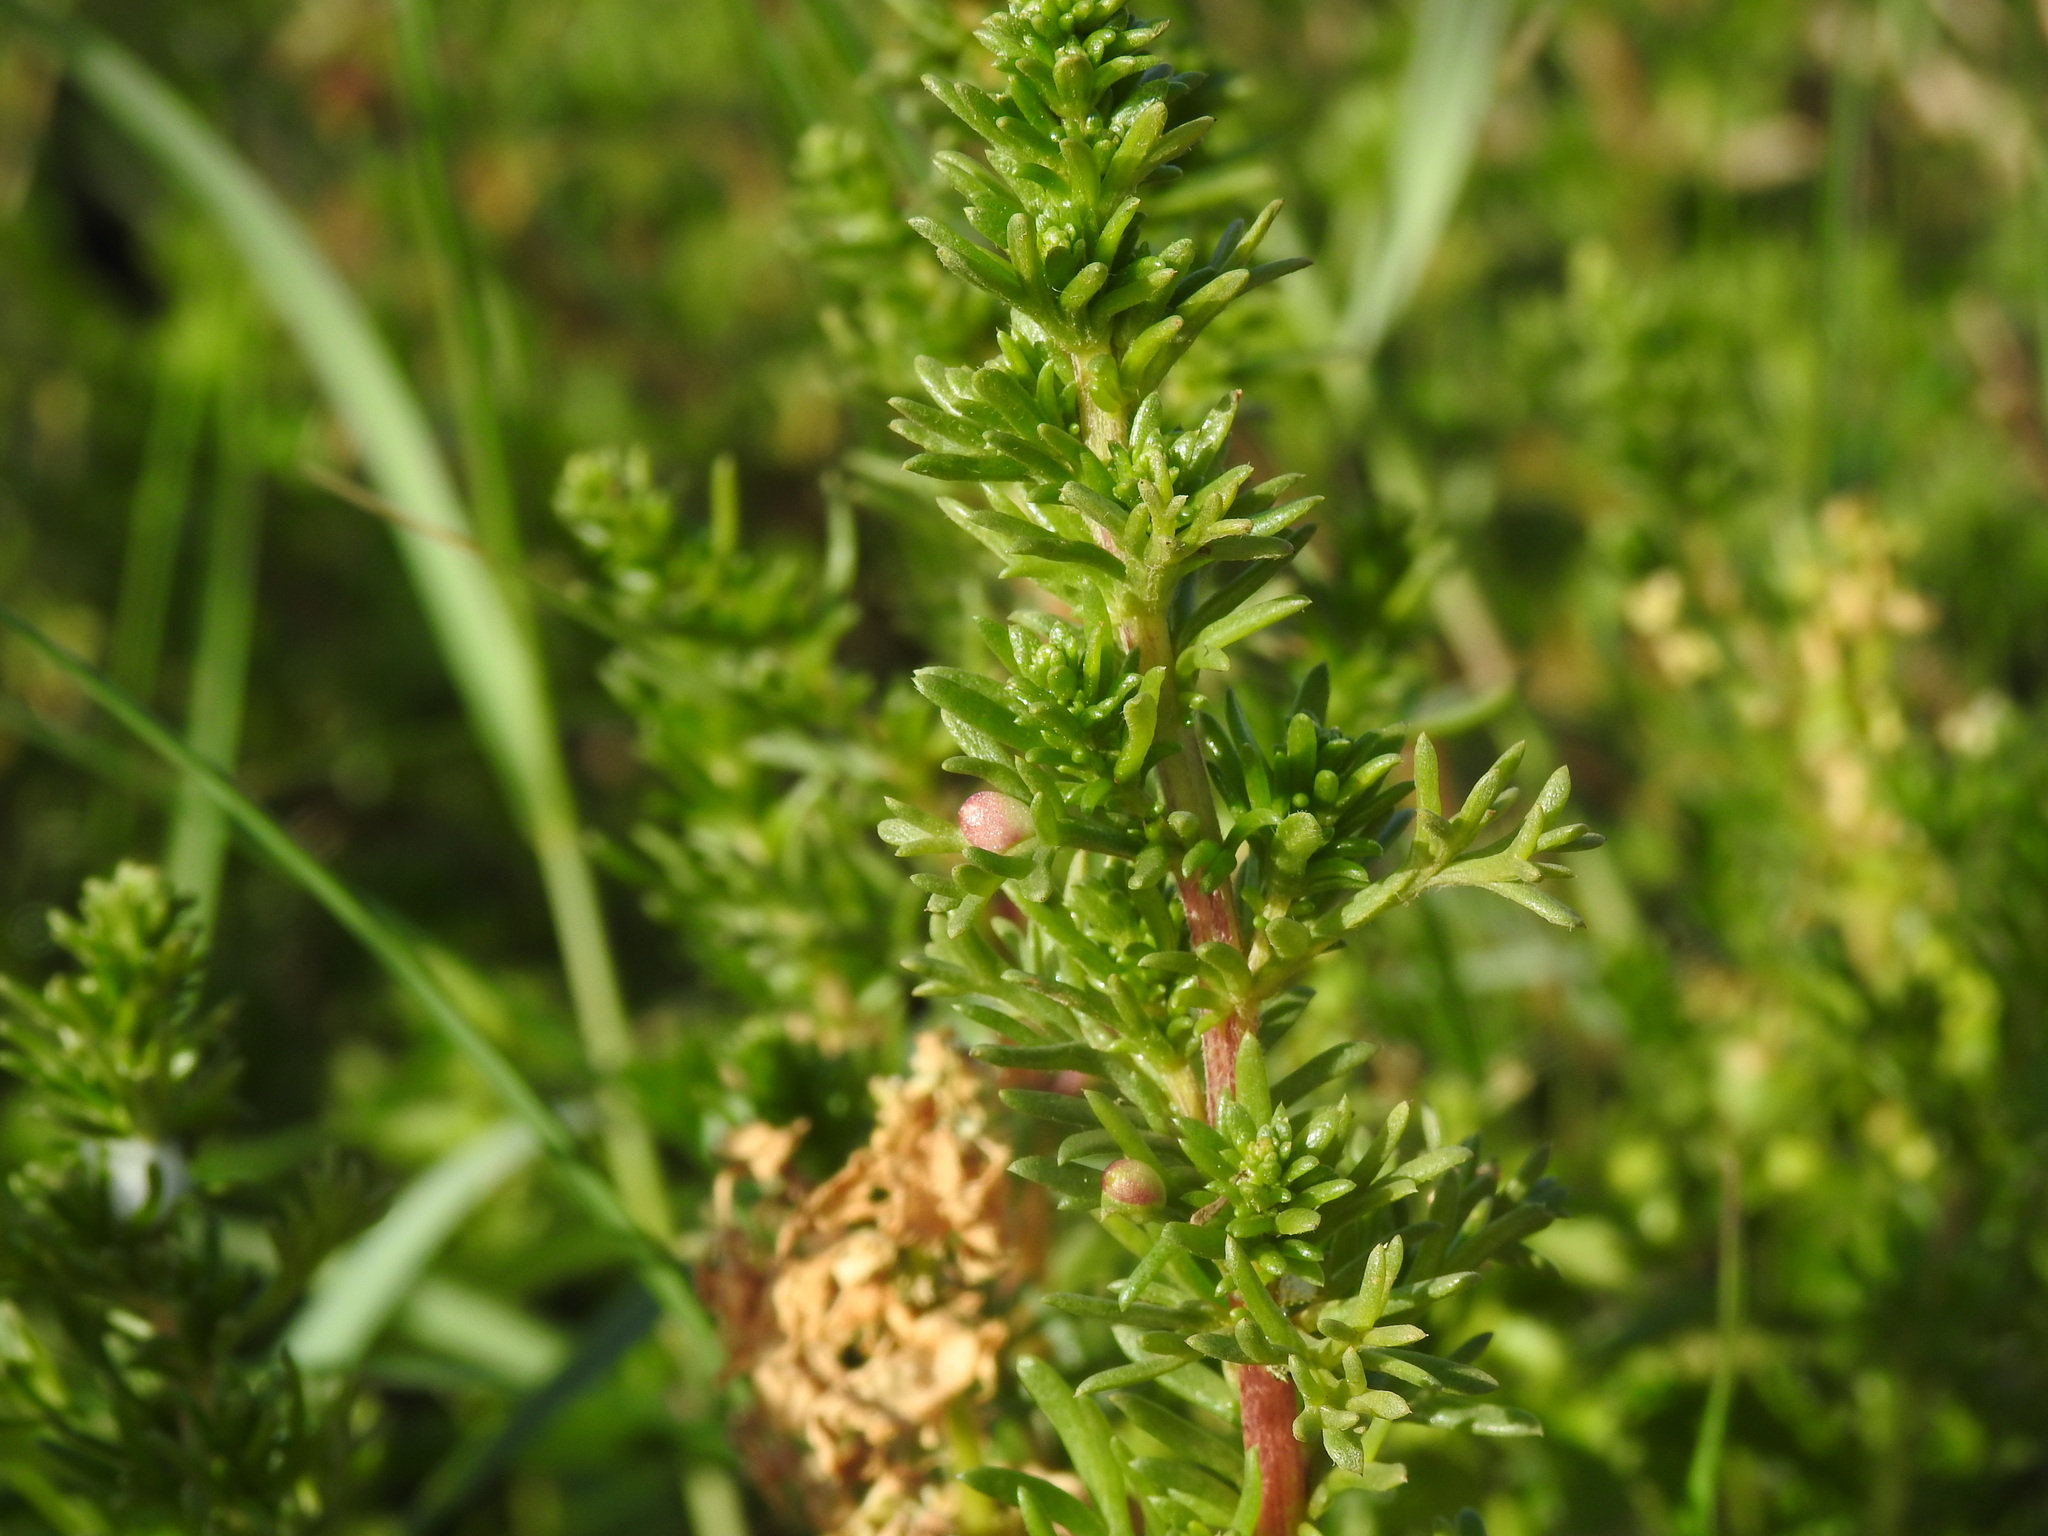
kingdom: Animalia
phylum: Arthropoda
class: Insecta
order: Diptera
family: Cecidomyiidae
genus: Rhopalomyia
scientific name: Rhopalomyia baccarum
